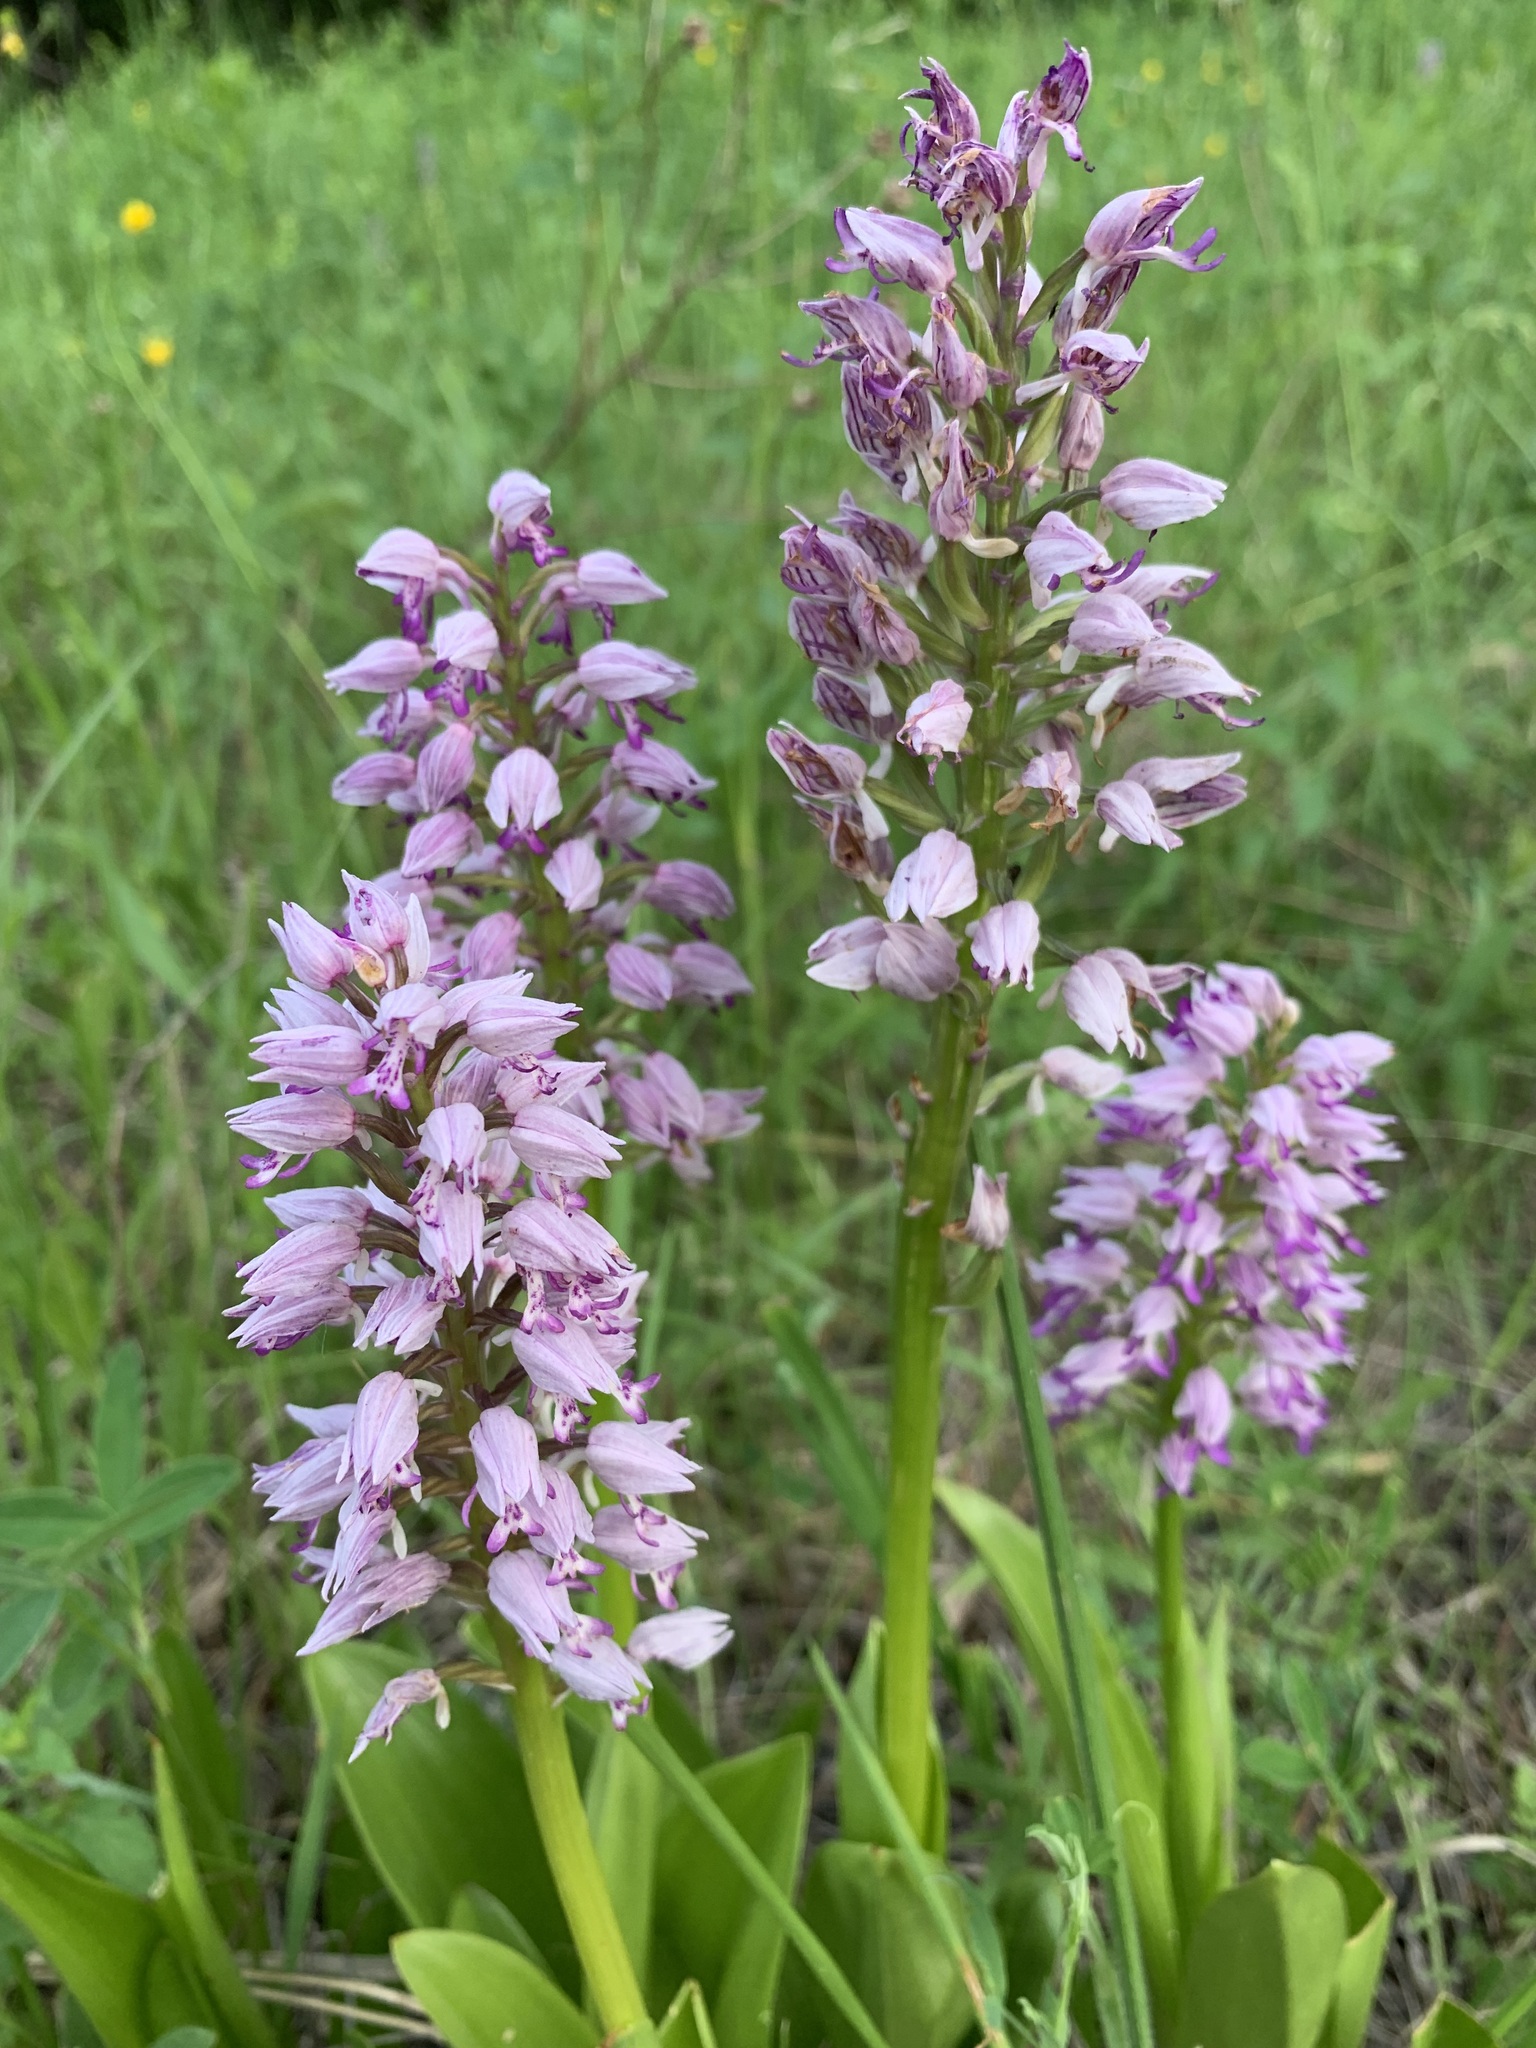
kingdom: Plantae
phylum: Tracheophyta
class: Liliopsida
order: Asparagales
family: Orchidaceae
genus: Orchis
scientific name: Orchis militaris
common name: Military orchid
